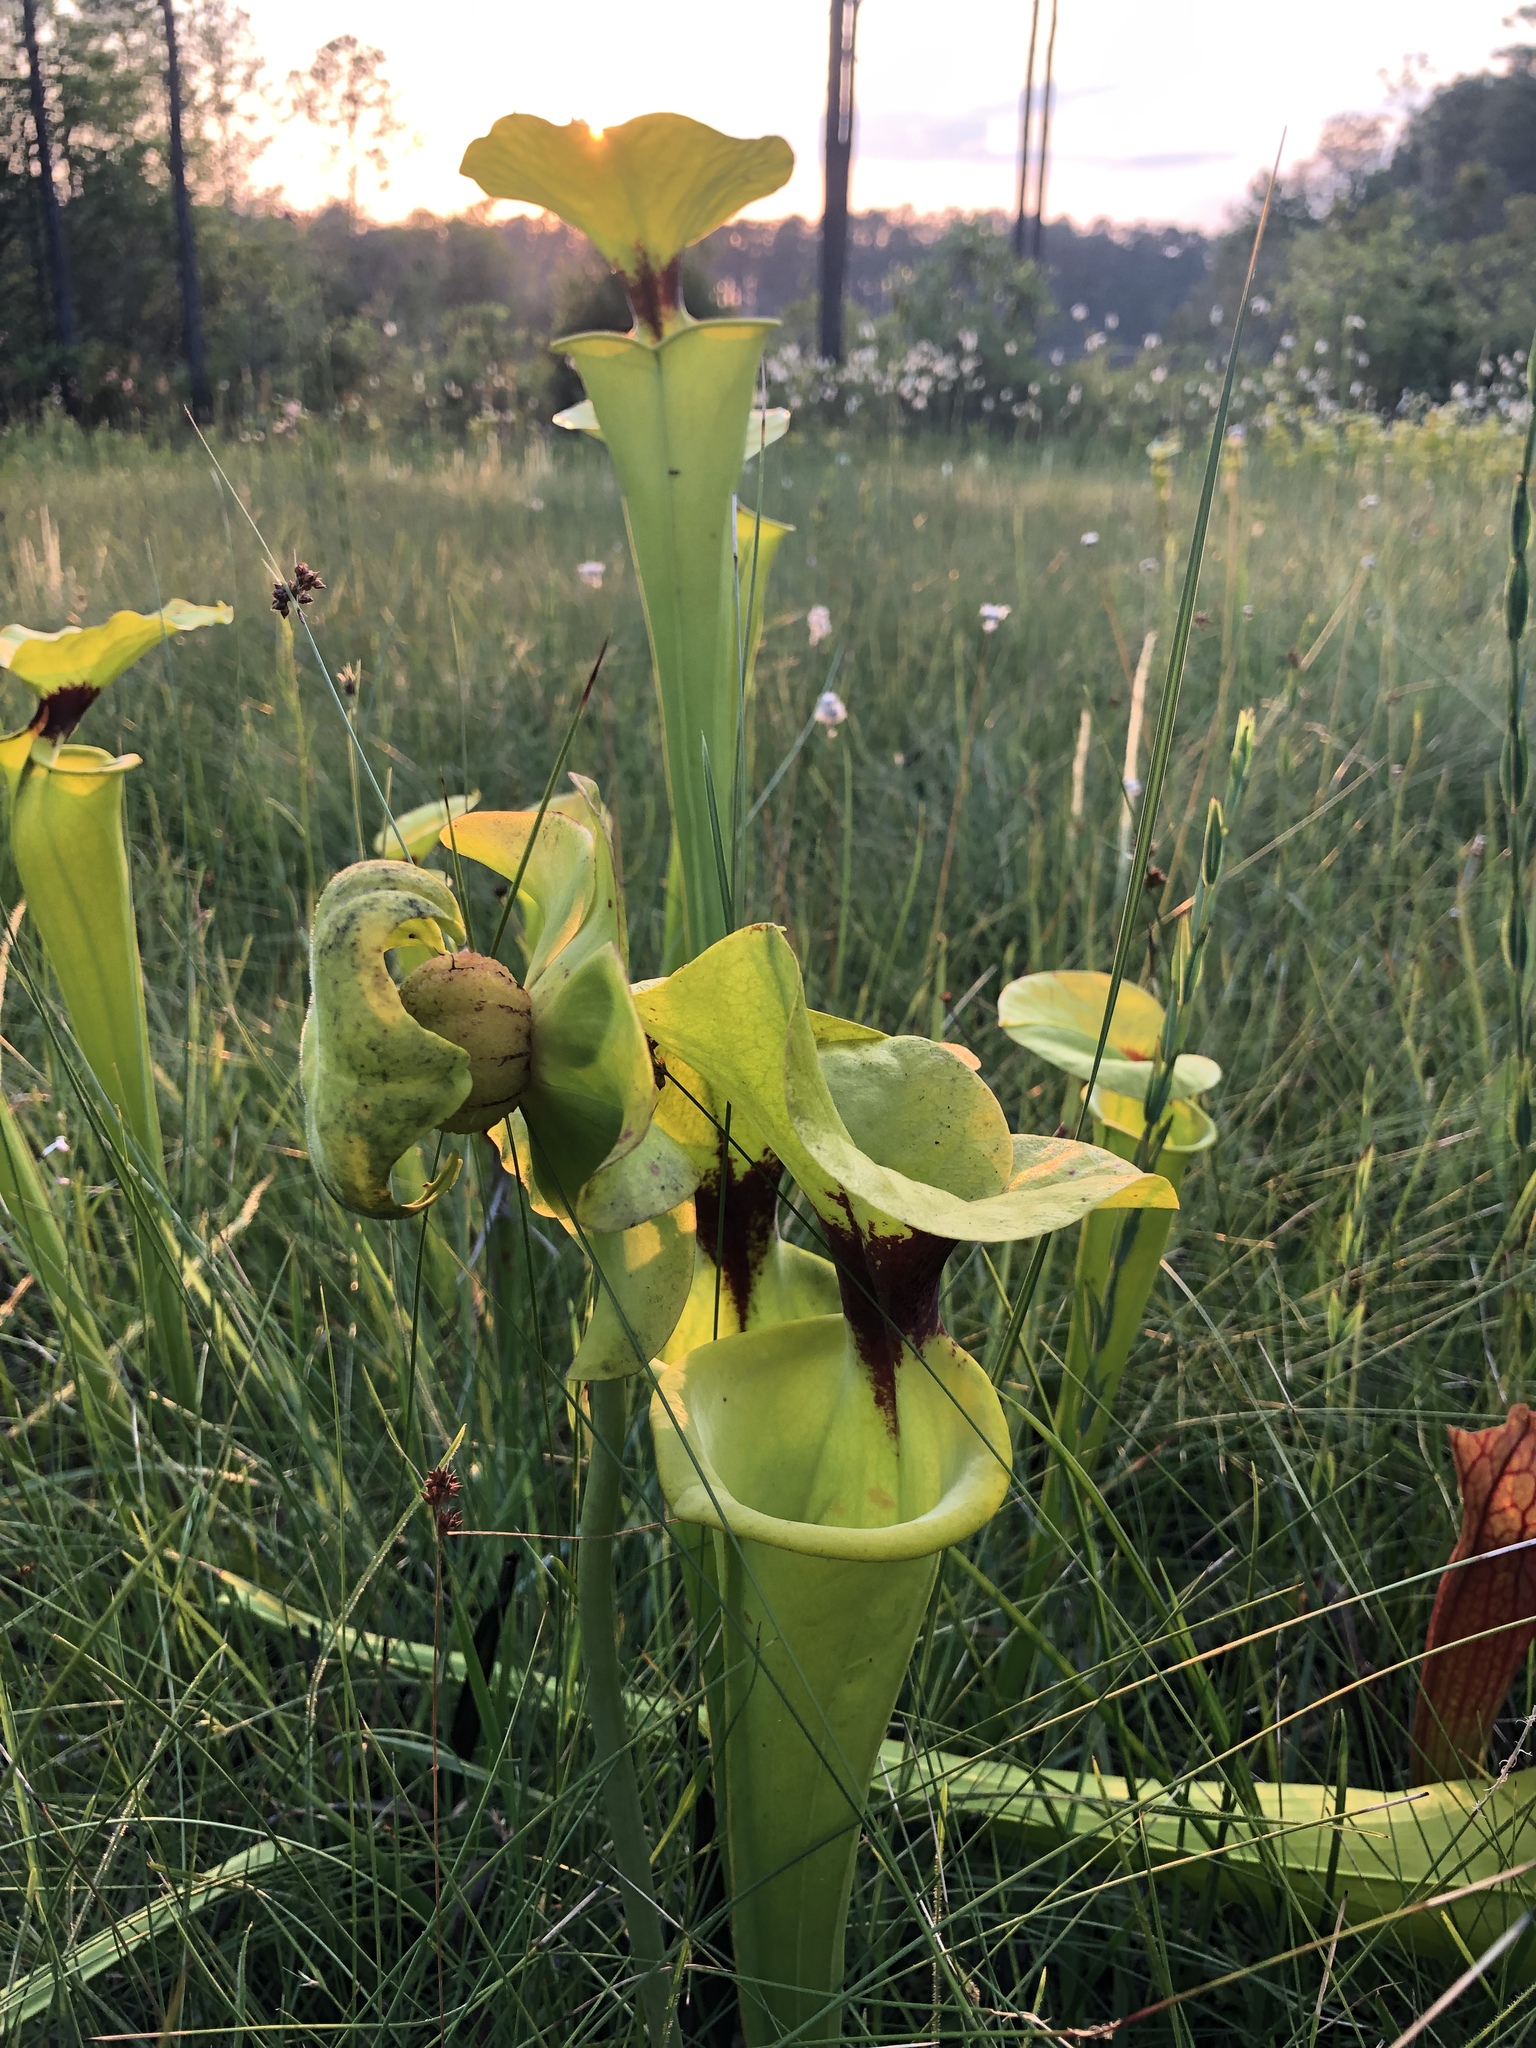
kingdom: Plantae
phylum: Tracheophyta
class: Magnoliopsida
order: Ericales
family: Sarraceniaceae
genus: Sarracenia
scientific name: Sarracenia flava
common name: Trumpets
